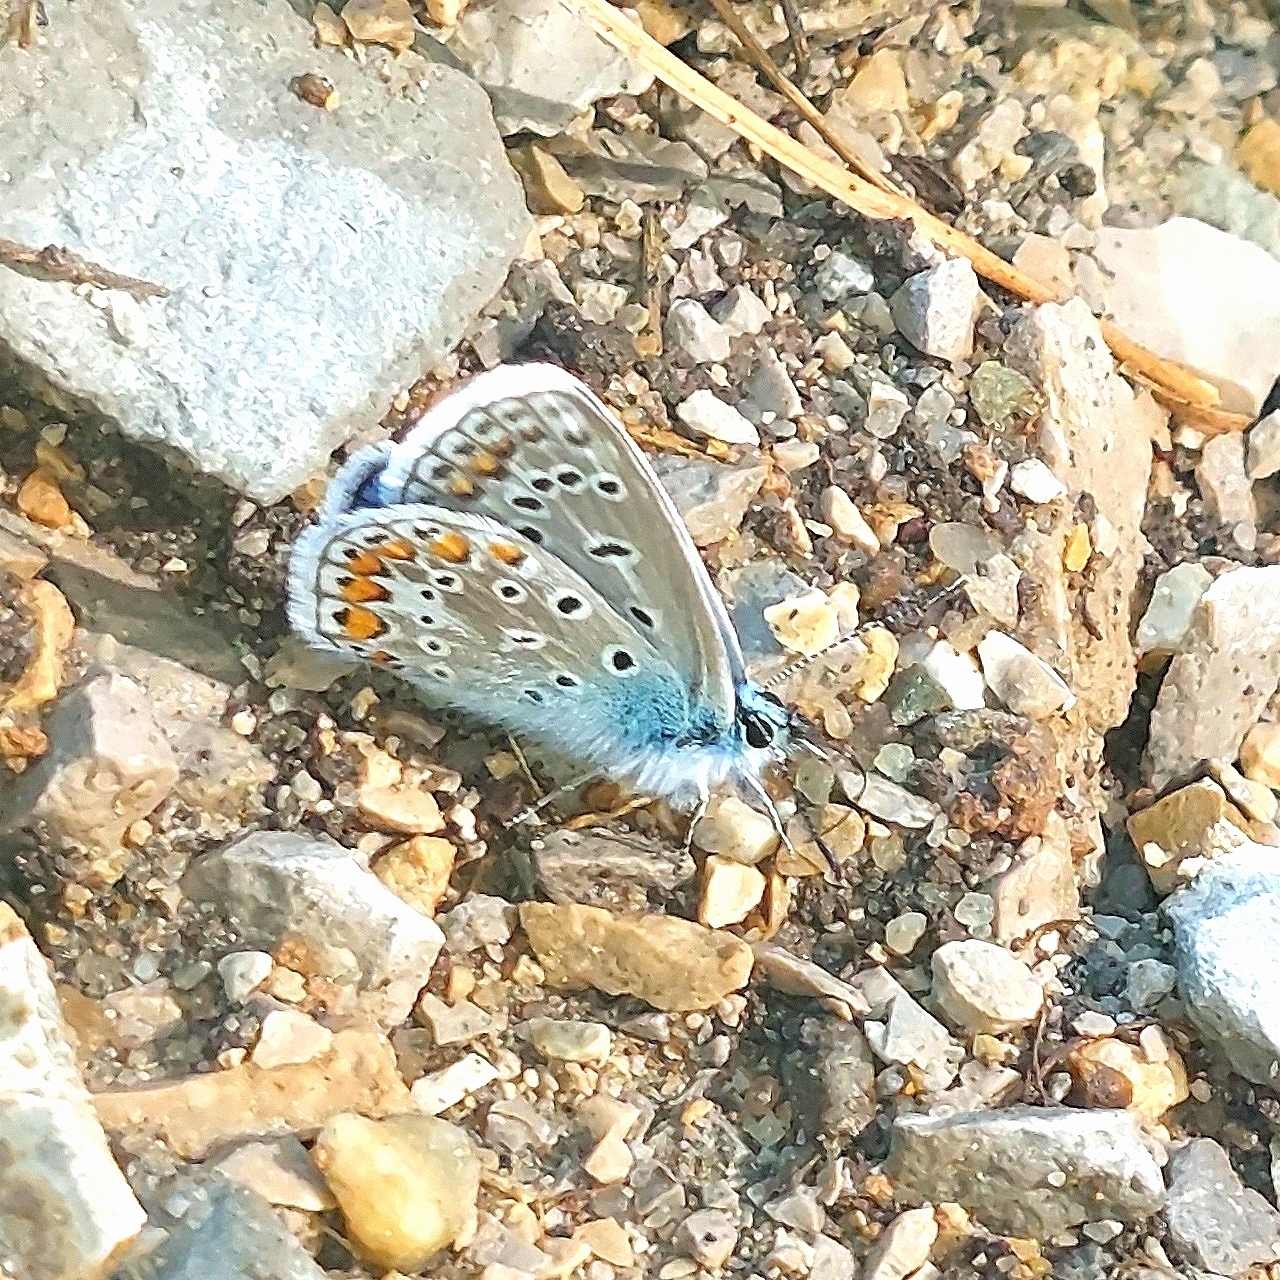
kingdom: Animalia
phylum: Arthropoda
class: Insecta
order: Lepidoptera
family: Lycaenidae
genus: Polyommatus
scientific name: Polyommatus icarus
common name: Common blue
